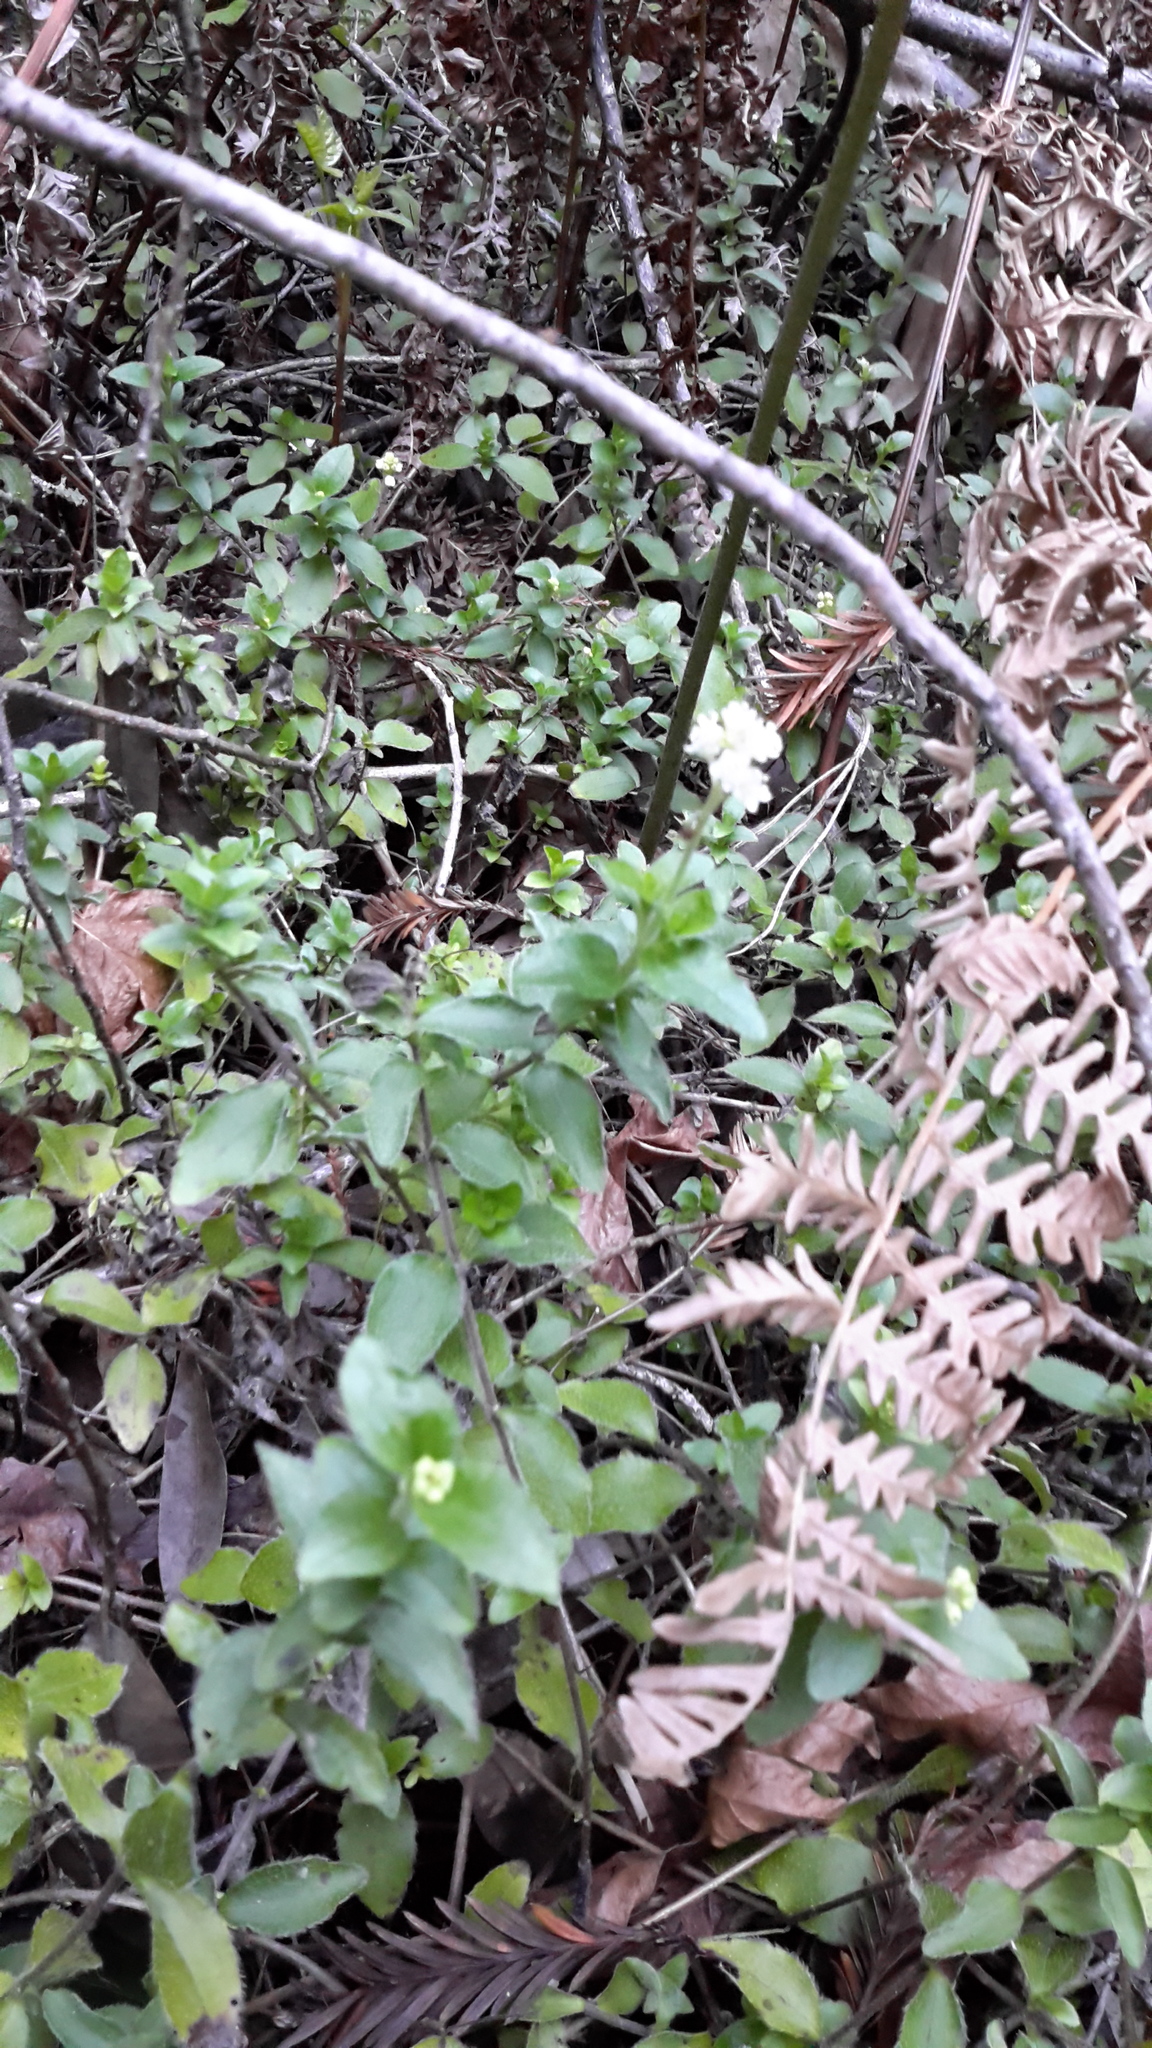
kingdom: Plantae
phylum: Tracheophyta
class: Magnoliopsida
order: Cornales
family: Hydrangeaceae
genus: Whipplea
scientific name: Whipplea modesta
